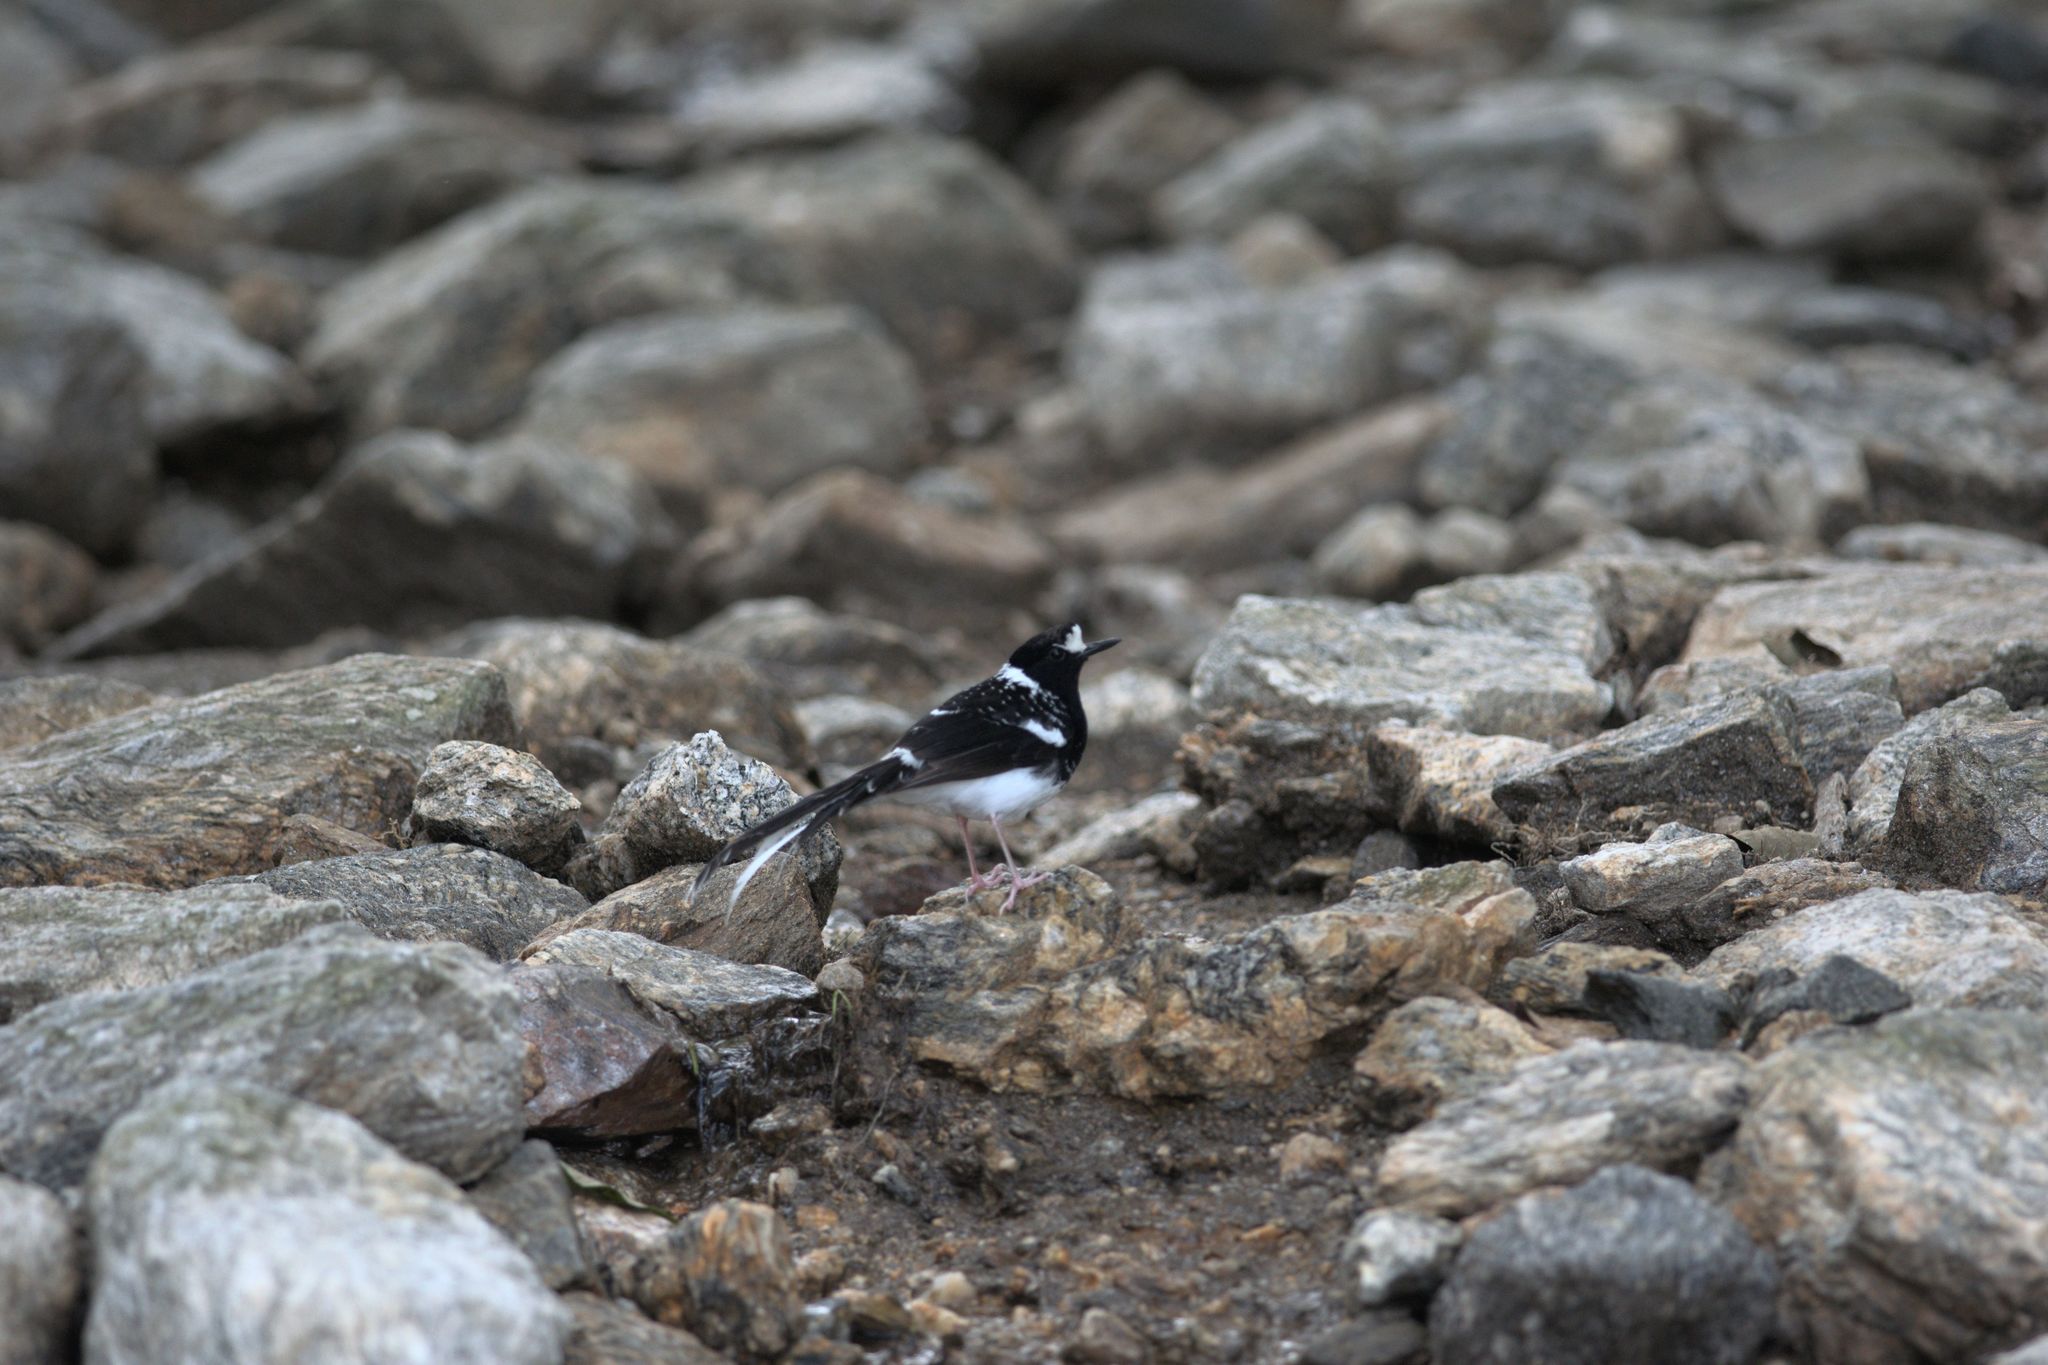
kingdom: Animalia
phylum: Chordata
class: Aves
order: Passeriformes
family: Muscicapidae
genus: Enicurus
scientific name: Enicurus maculatus
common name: Spotted forktail
